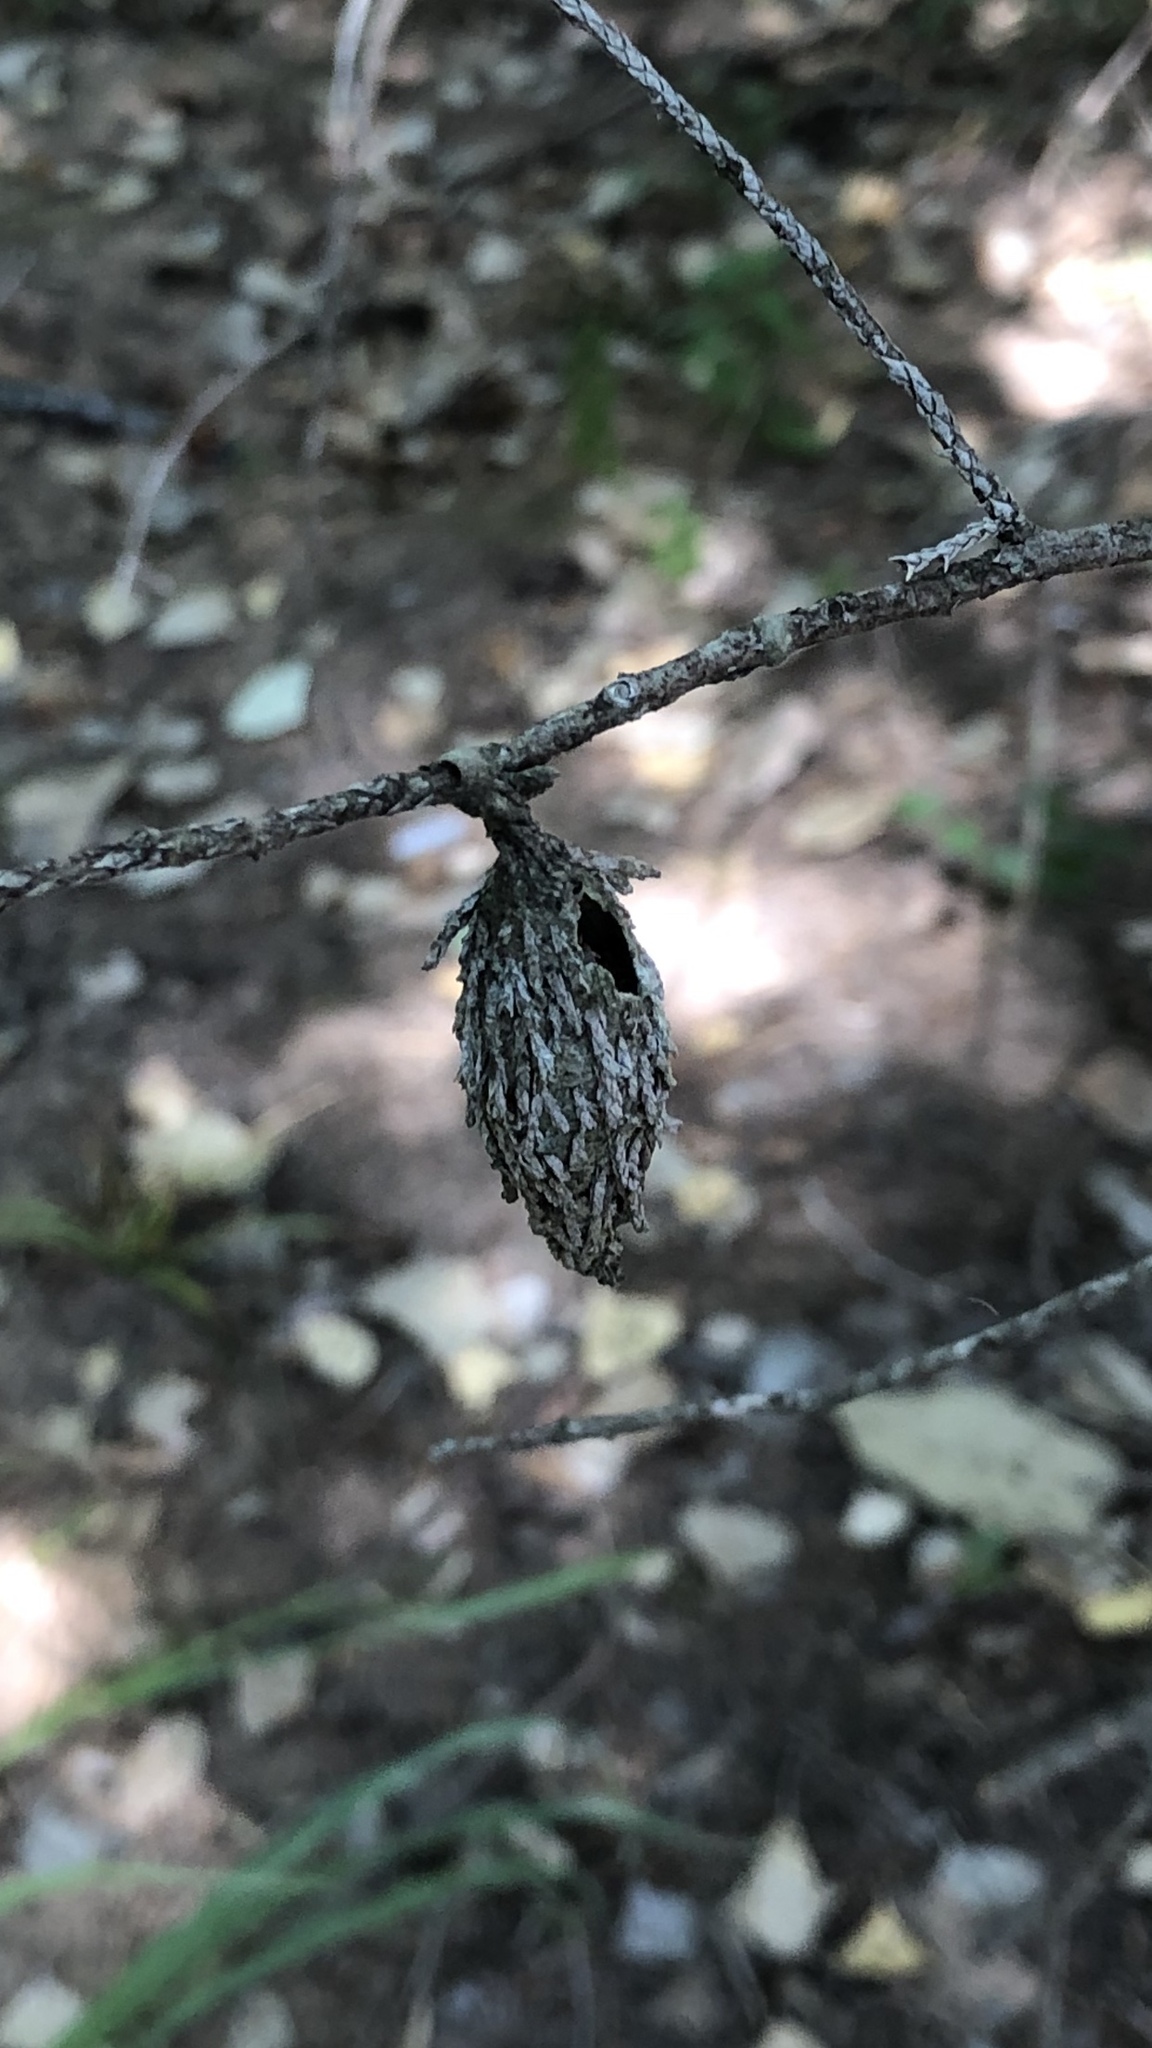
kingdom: Animalia
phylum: Arthropoda
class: Insecta
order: Lepidoptera
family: Psychidae
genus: Thyridopteryx
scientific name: Thyridopteryx ephemeraeformis
